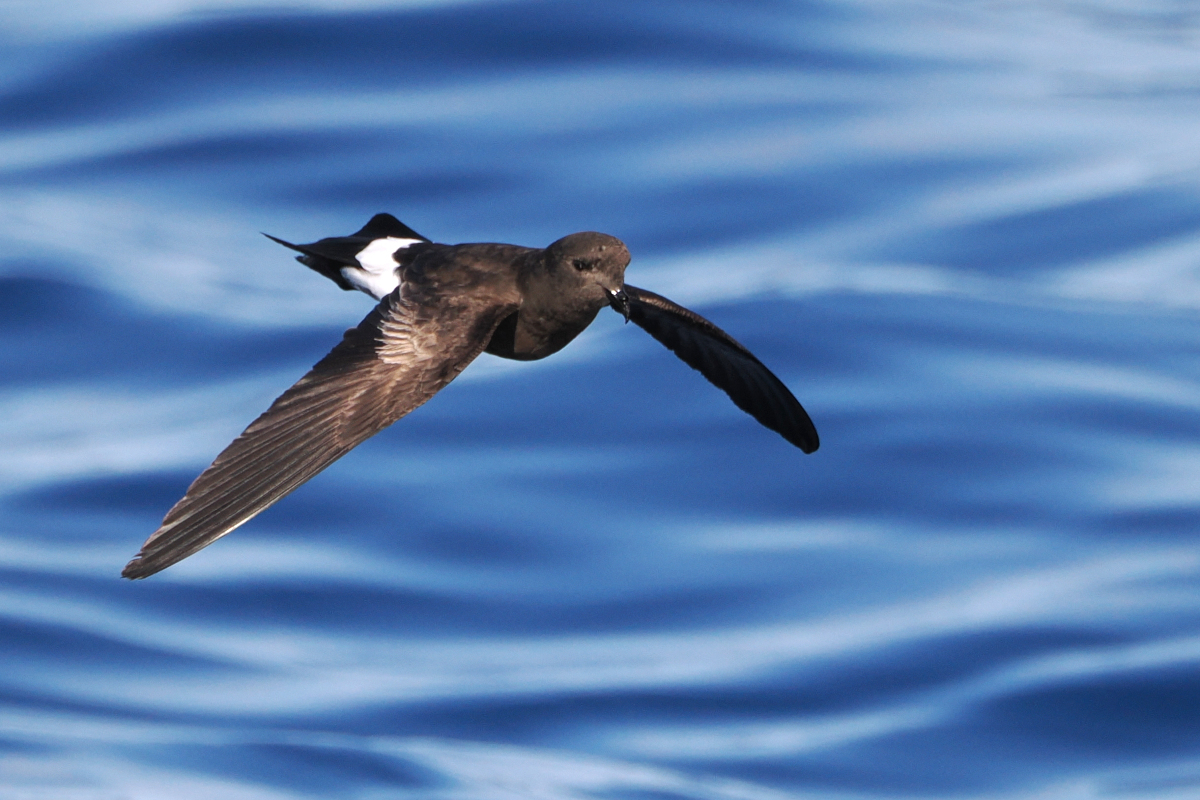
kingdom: Animalia
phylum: Chordata
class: Aves
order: Procellariiformes
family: Hydrobatidae
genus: Oceanites
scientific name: Oceanites oceanicus
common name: Wilson's storm petrel
